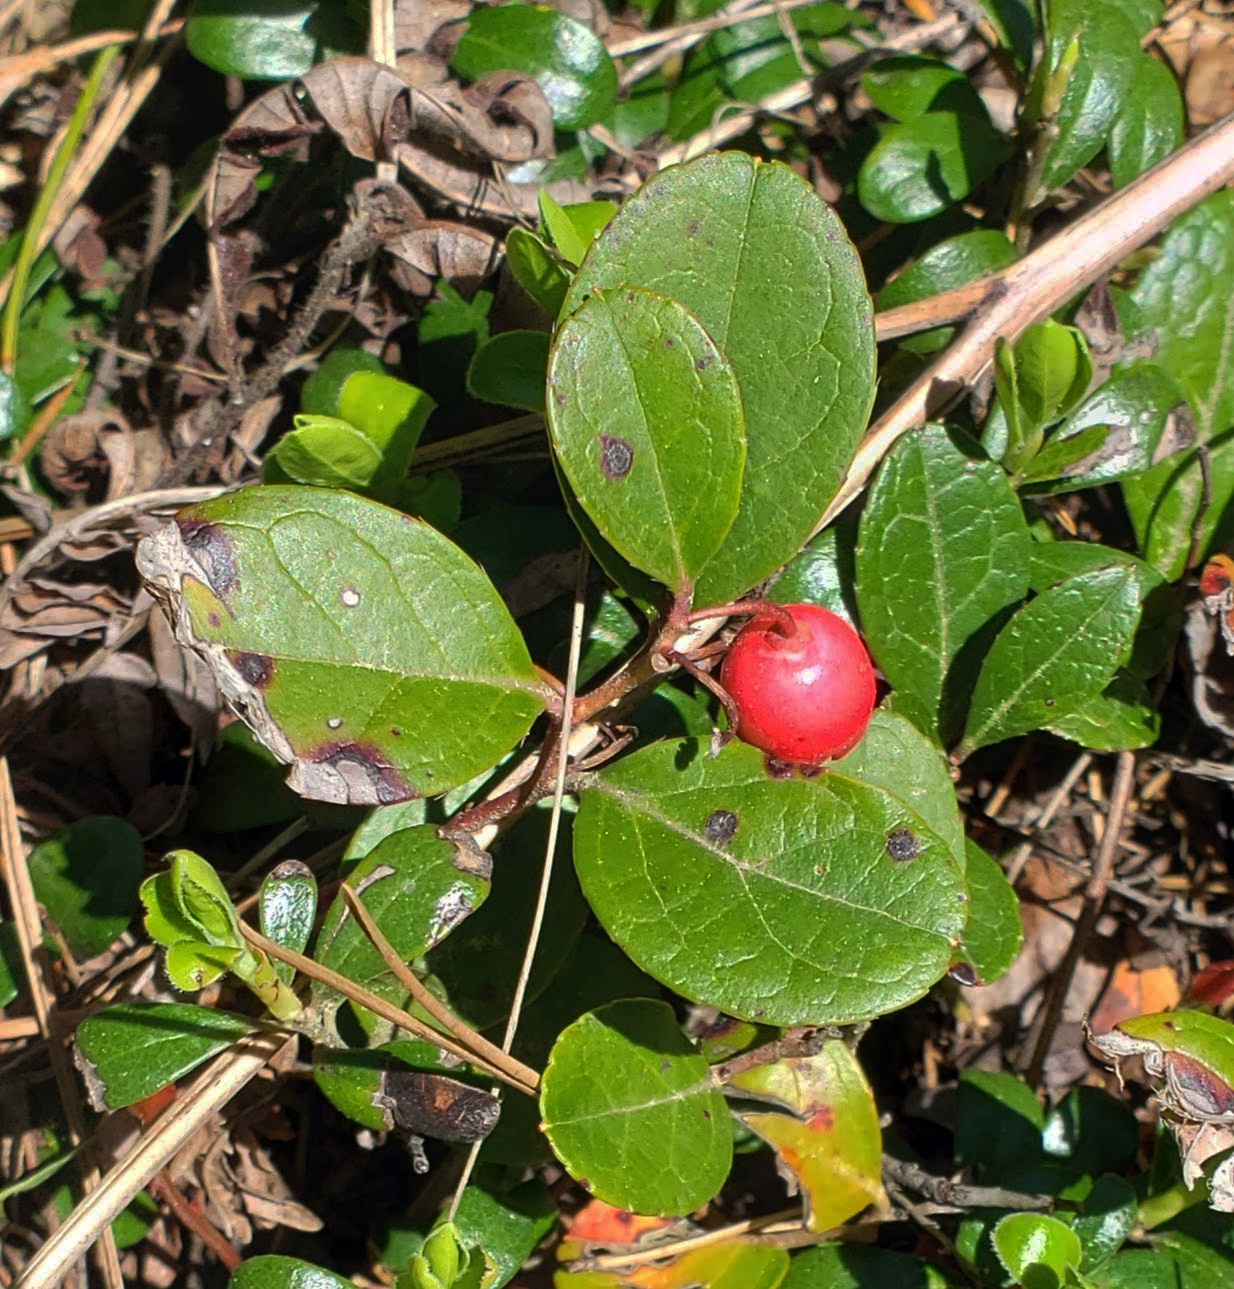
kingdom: Plantae
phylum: Tracheophyta
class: Magnoliopsida
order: Ericales
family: Ericaceae
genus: Gaultheria
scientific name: Gaultheria procumbens
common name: Checkerberry
